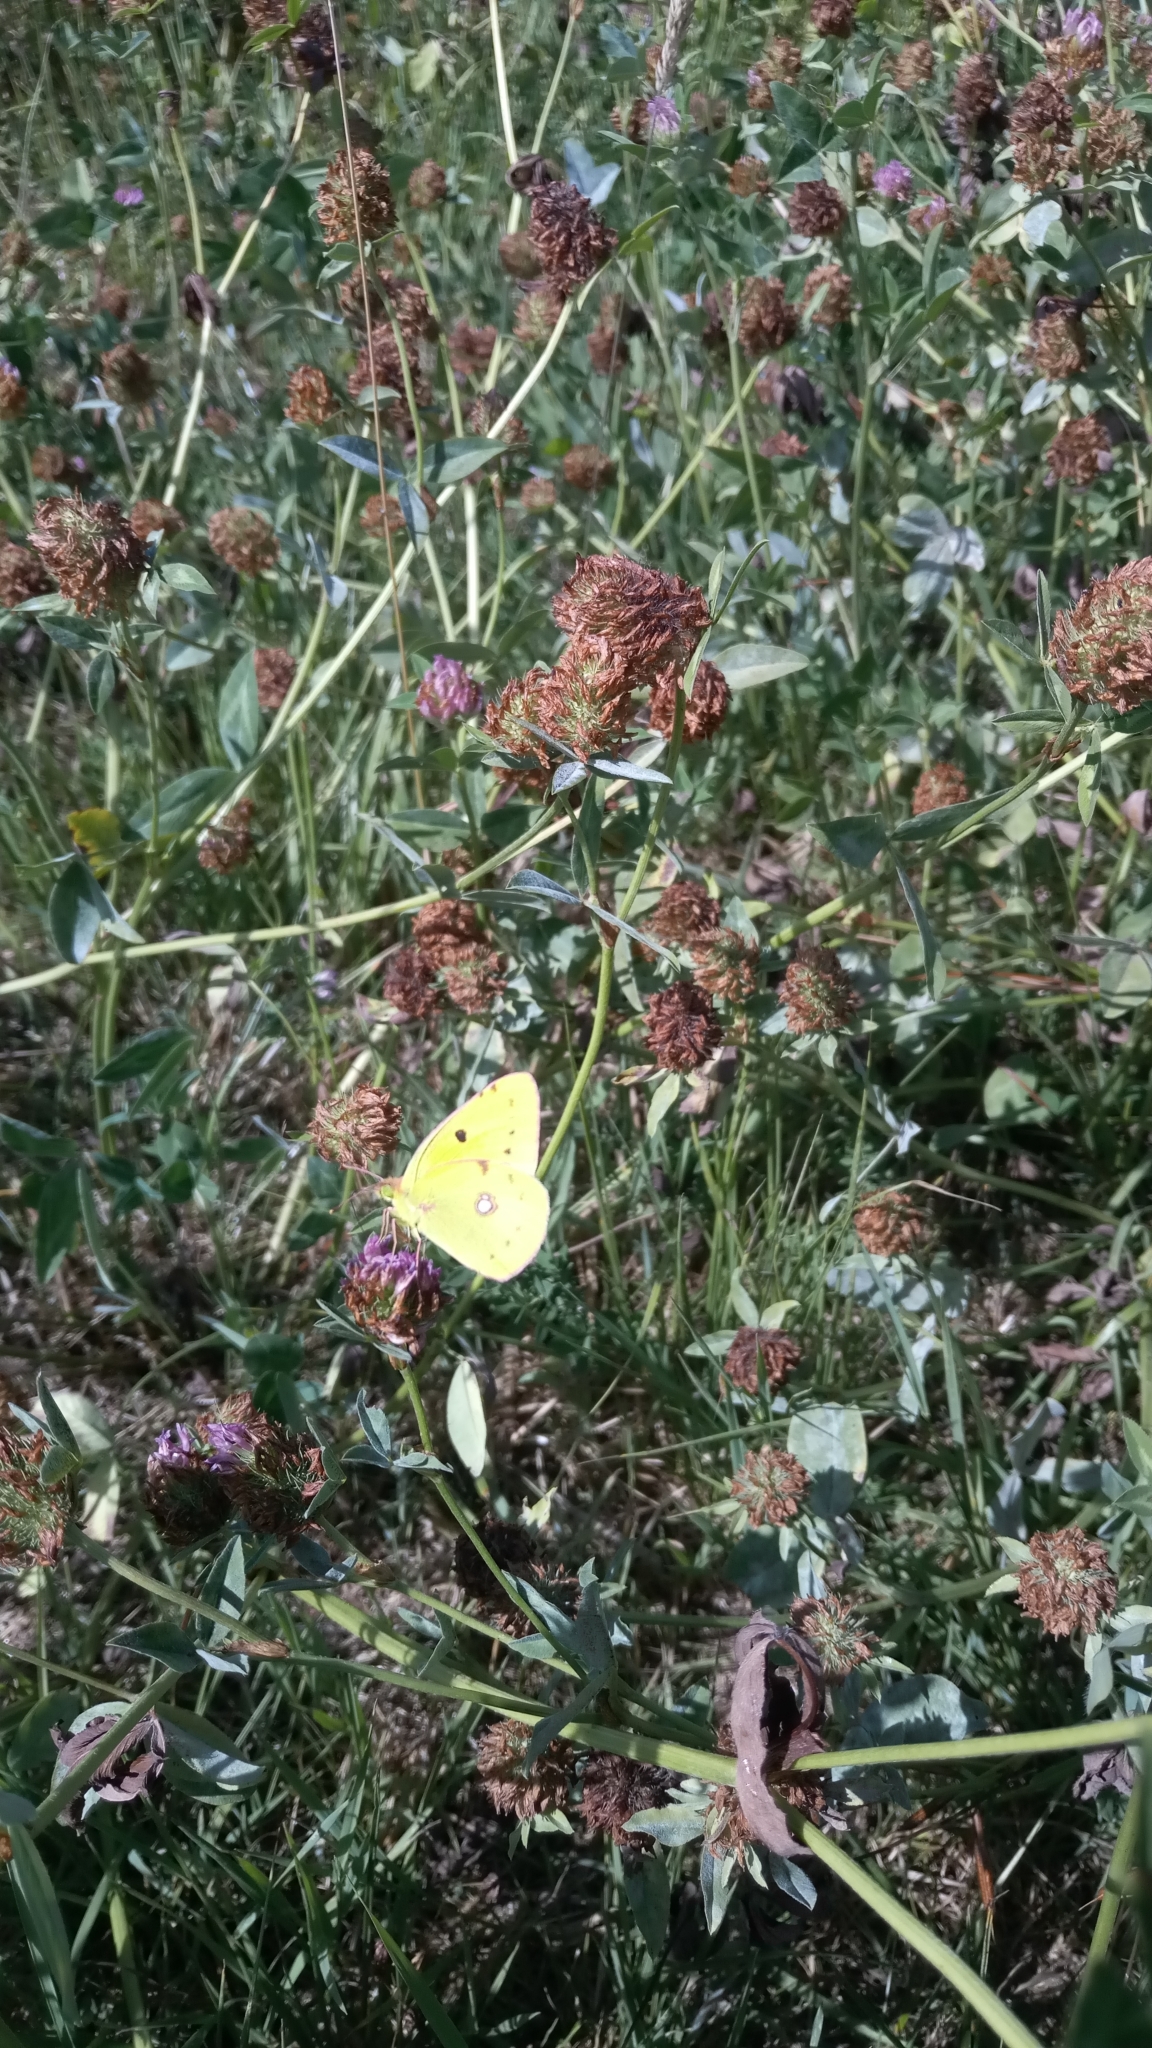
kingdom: Animalia
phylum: Arthropoda
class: Insecta
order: Lepidoptera
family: Pieridae
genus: Colias
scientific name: Colias croceus
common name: Clouded yellow
